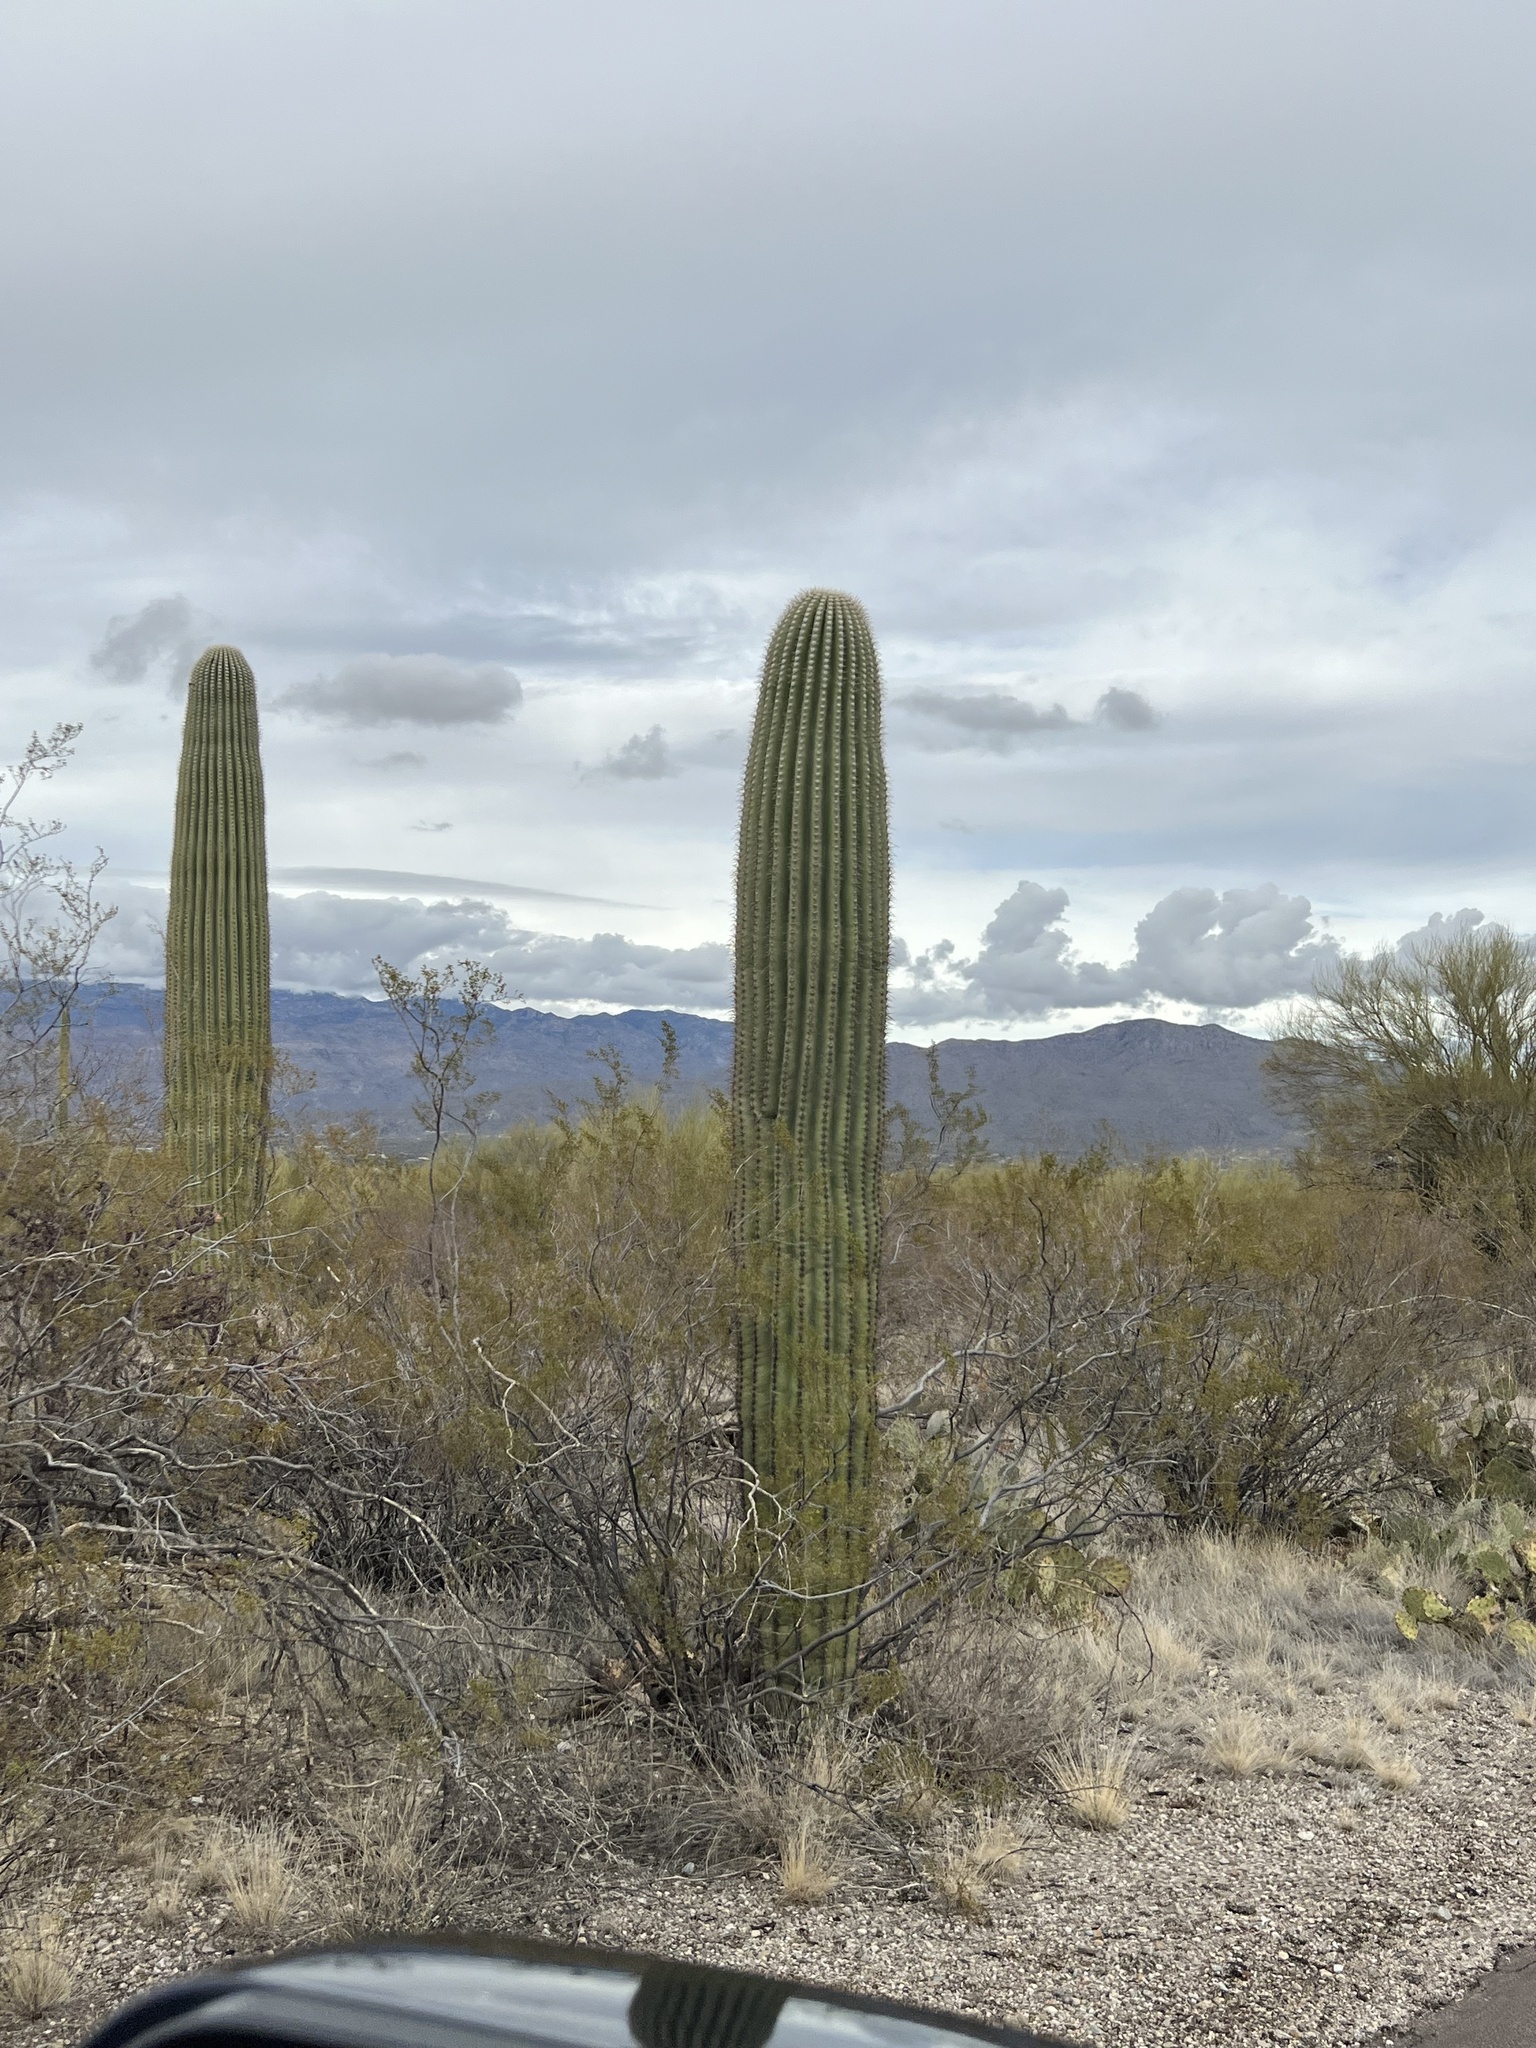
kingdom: Plantae
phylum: Tracheophyta
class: Magnoliopsida
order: Caryophyllales
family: Cactaceae
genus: Carnegiea
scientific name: Carnegiea gigantea
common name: Saguaro
